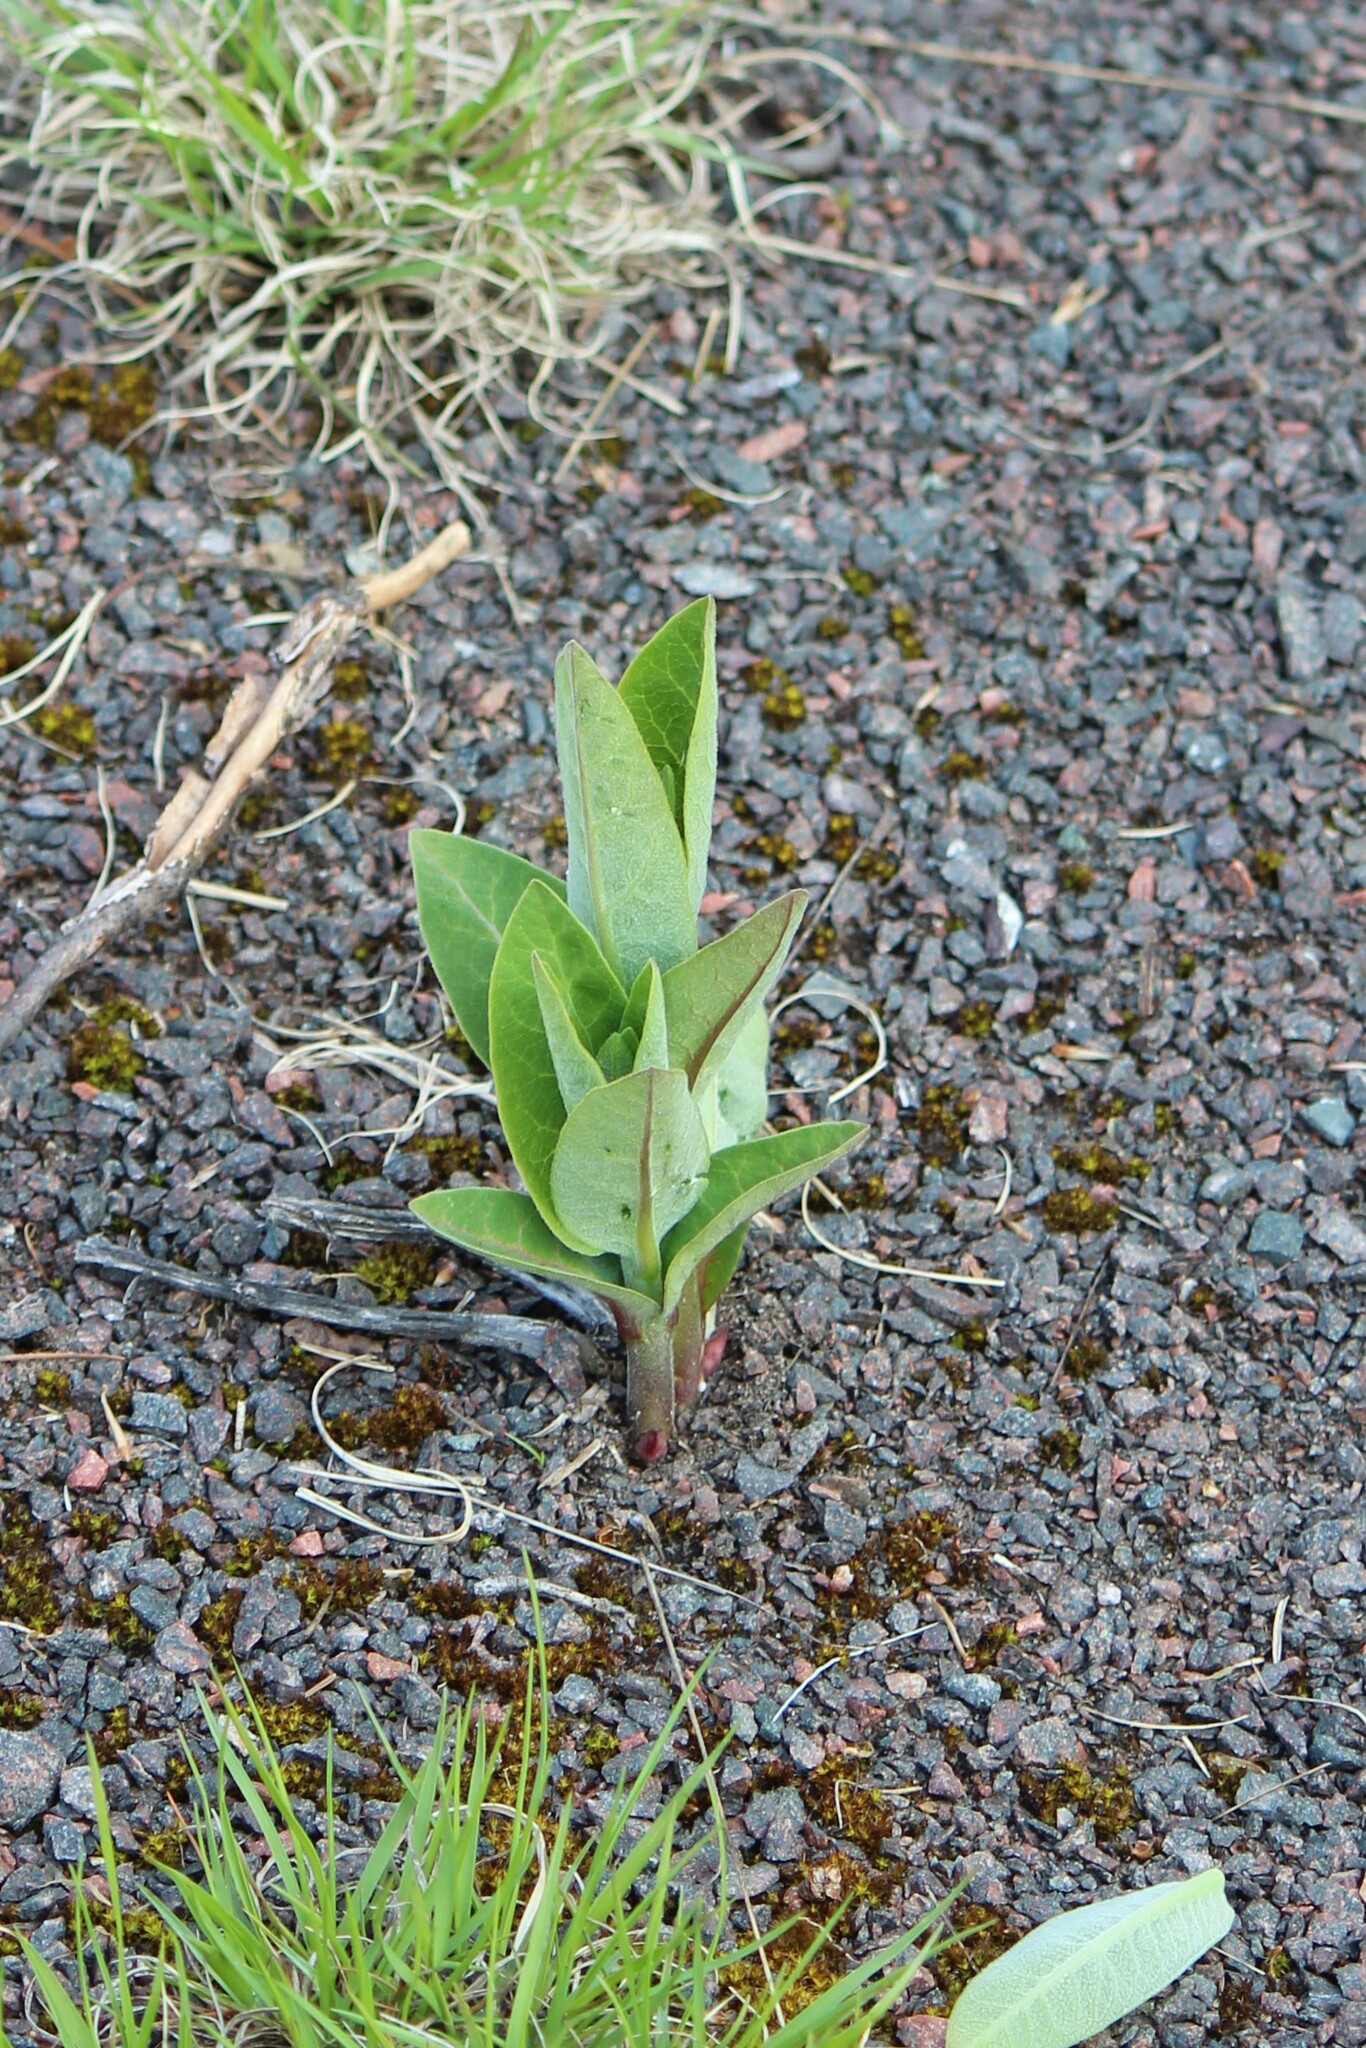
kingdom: Plantae
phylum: Tracheophyta
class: Magnoliopsida
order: Gentianales
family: Apocynaceae
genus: Asclepias
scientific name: Asclepias syriaca
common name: Common milkweed
